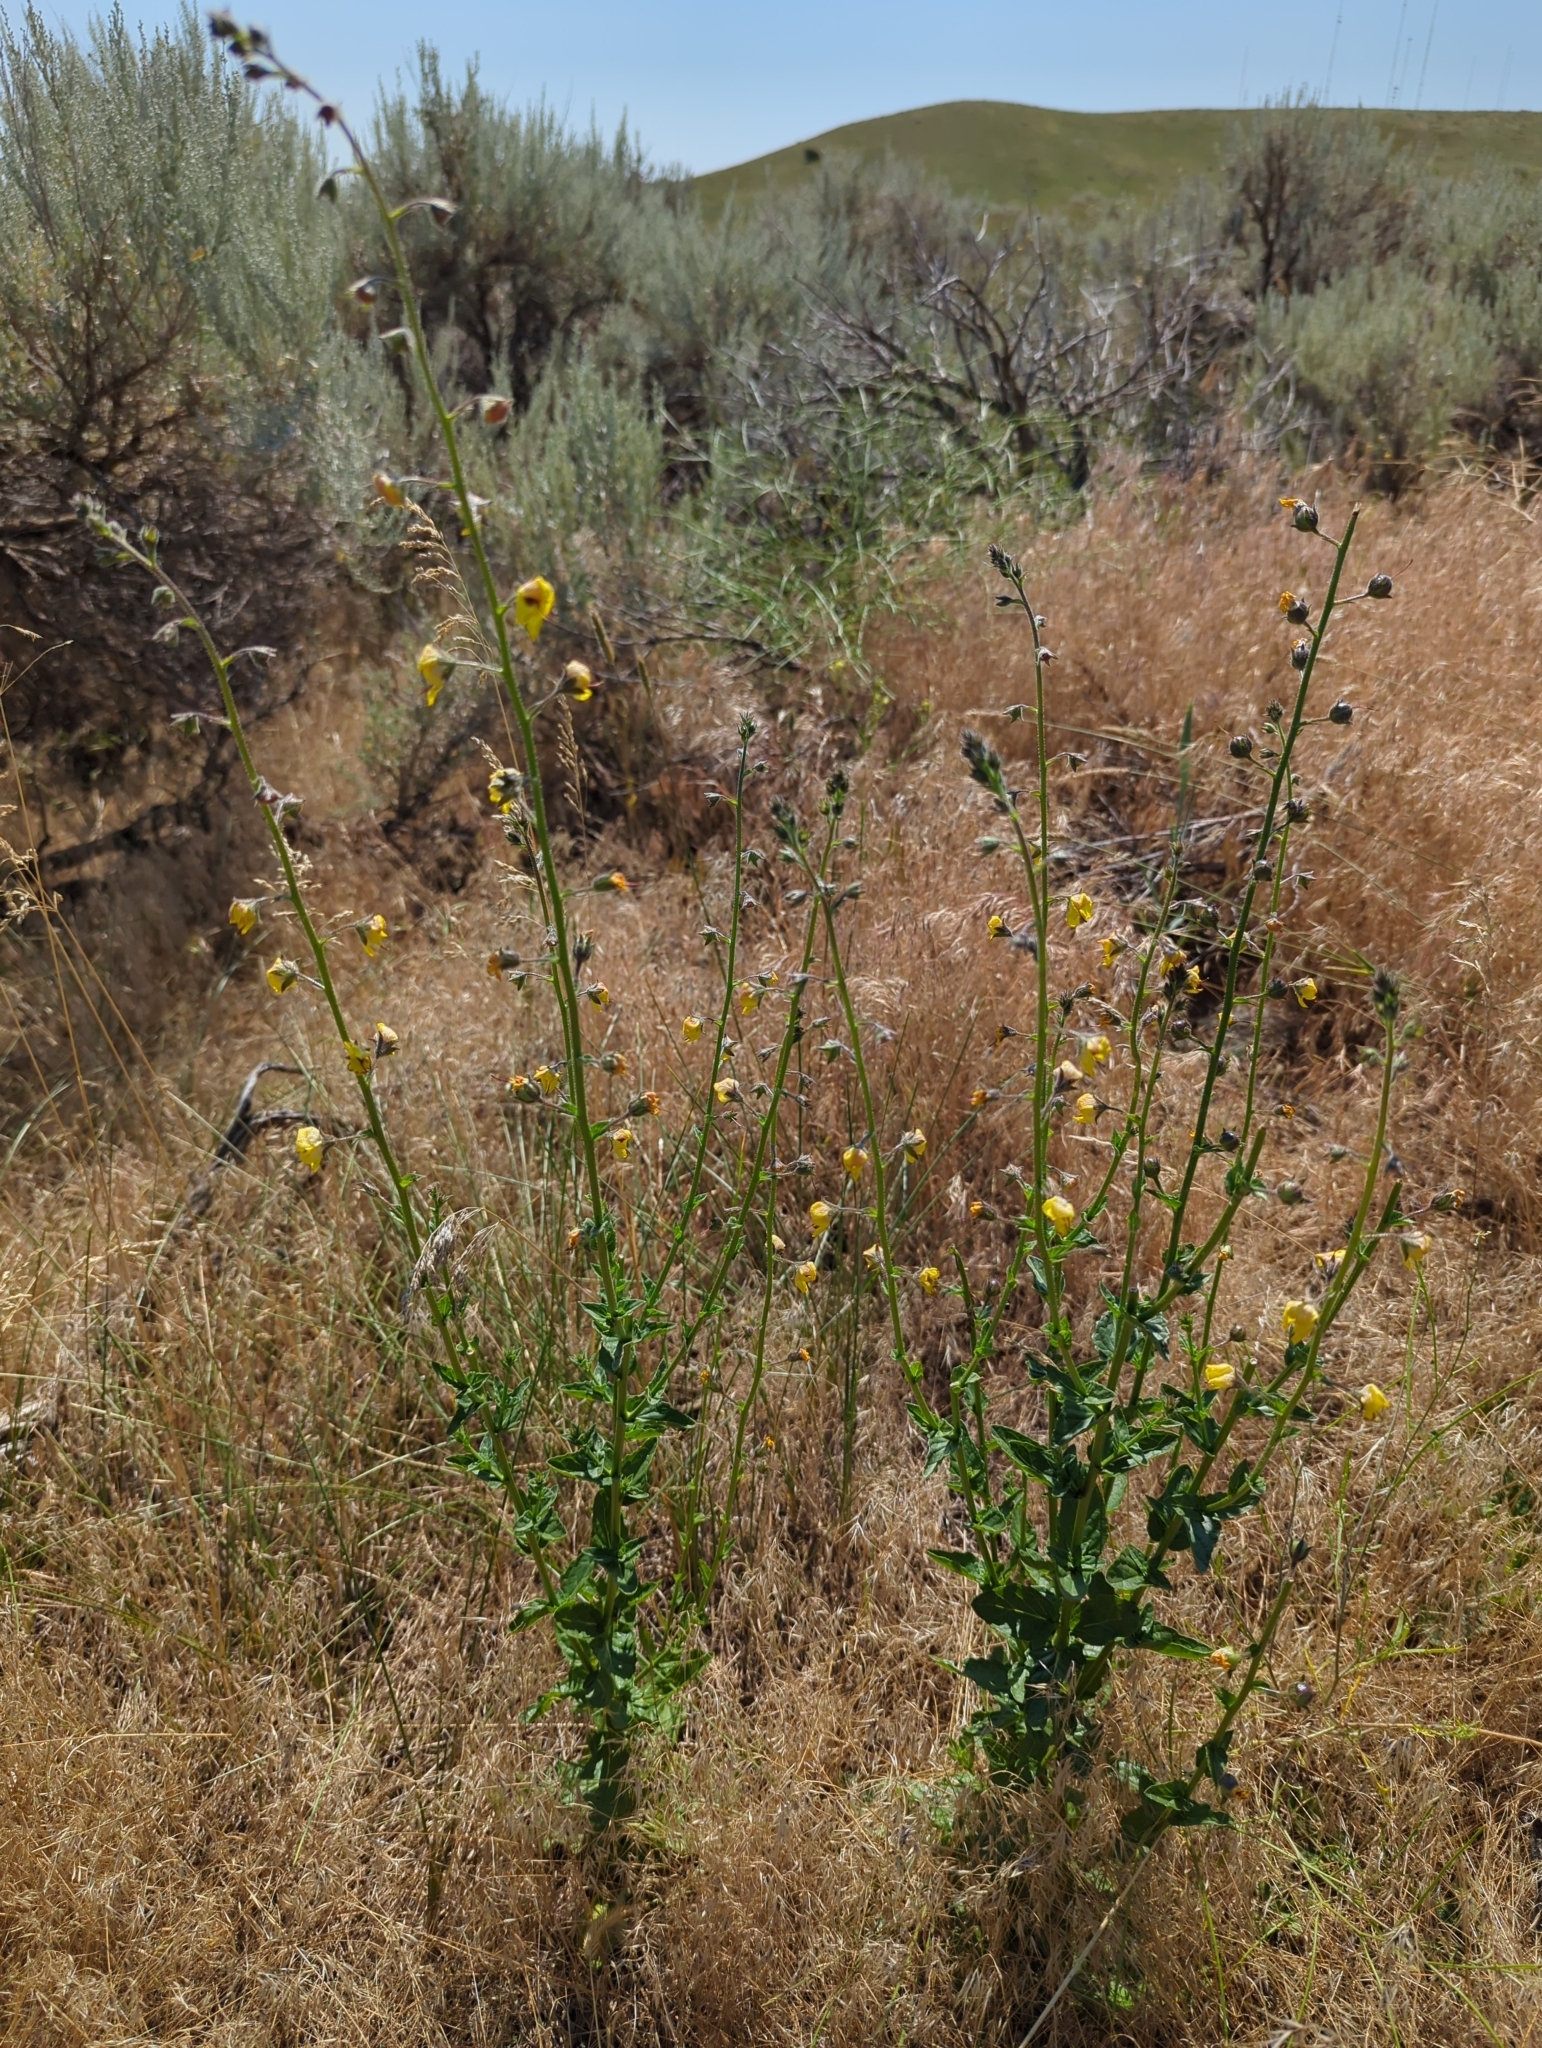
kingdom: Plantae
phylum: Tracheophyta
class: Magnoliopsida
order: Lamiales
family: Scrophulariaceae
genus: Verbascum
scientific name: Verbascum blattaria
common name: Moth mullein
